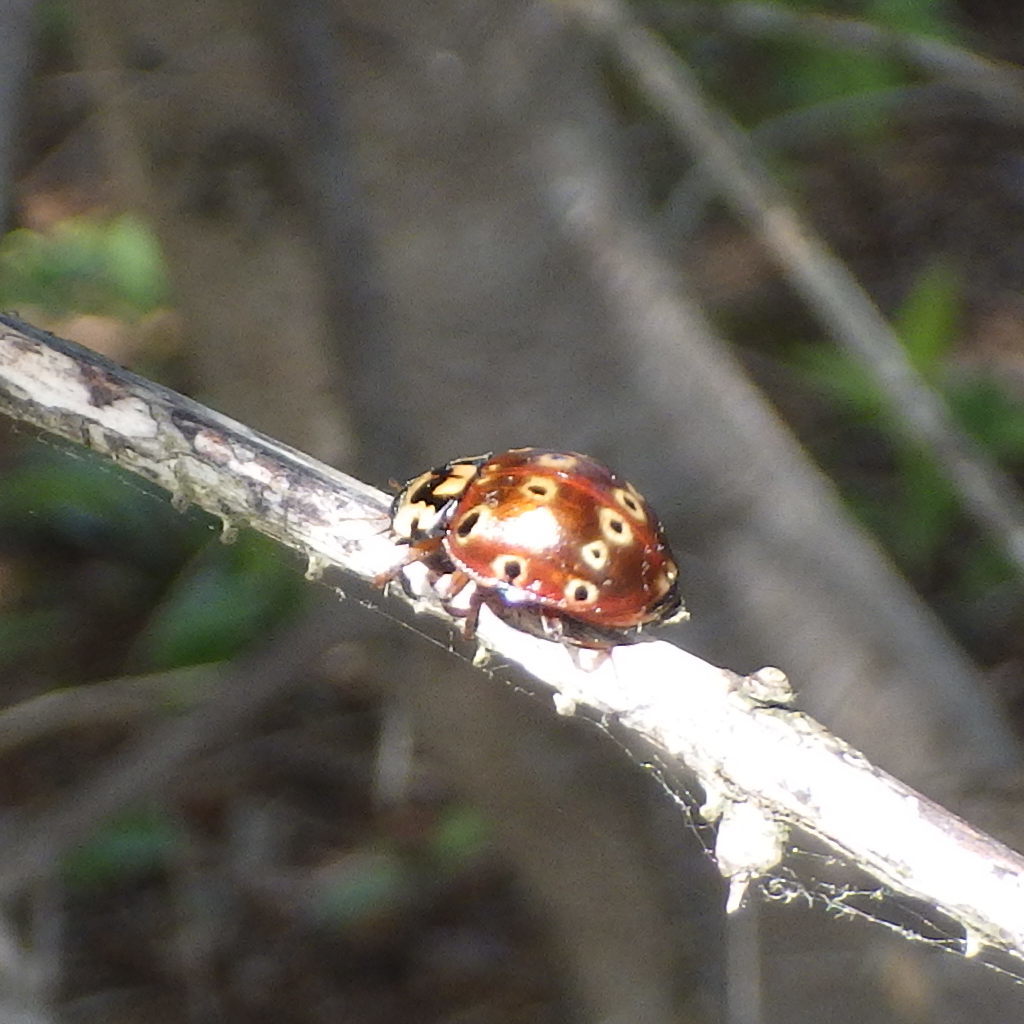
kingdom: Animalia
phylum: Arthropoda
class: Insecta
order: Coleoptera
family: Coccinellidae
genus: Anatis
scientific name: Anatis mali
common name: Eye-spotted lady beetle
